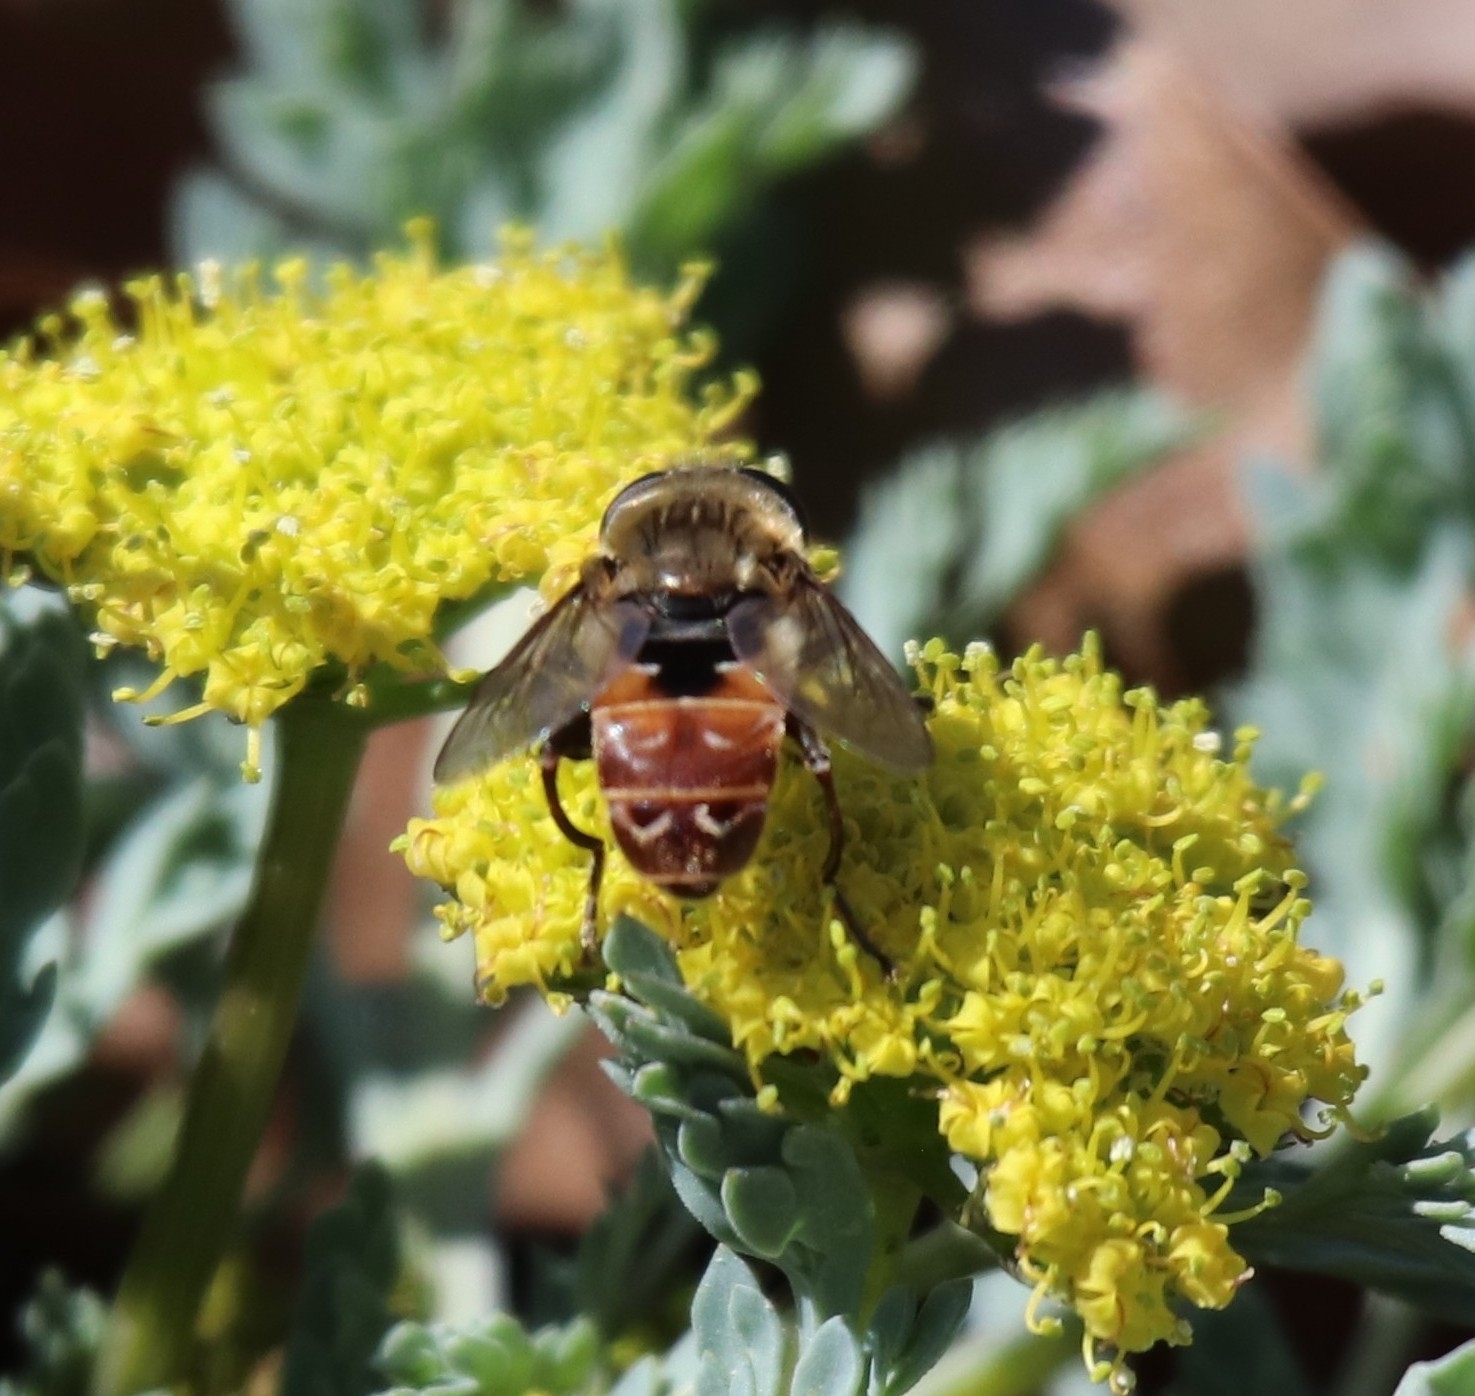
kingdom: Animalia
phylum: Arthropoda
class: Insecta
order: Diptera
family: Syrphidae
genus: Asemosyrphus
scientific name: Asemosyrphus polygrammus
